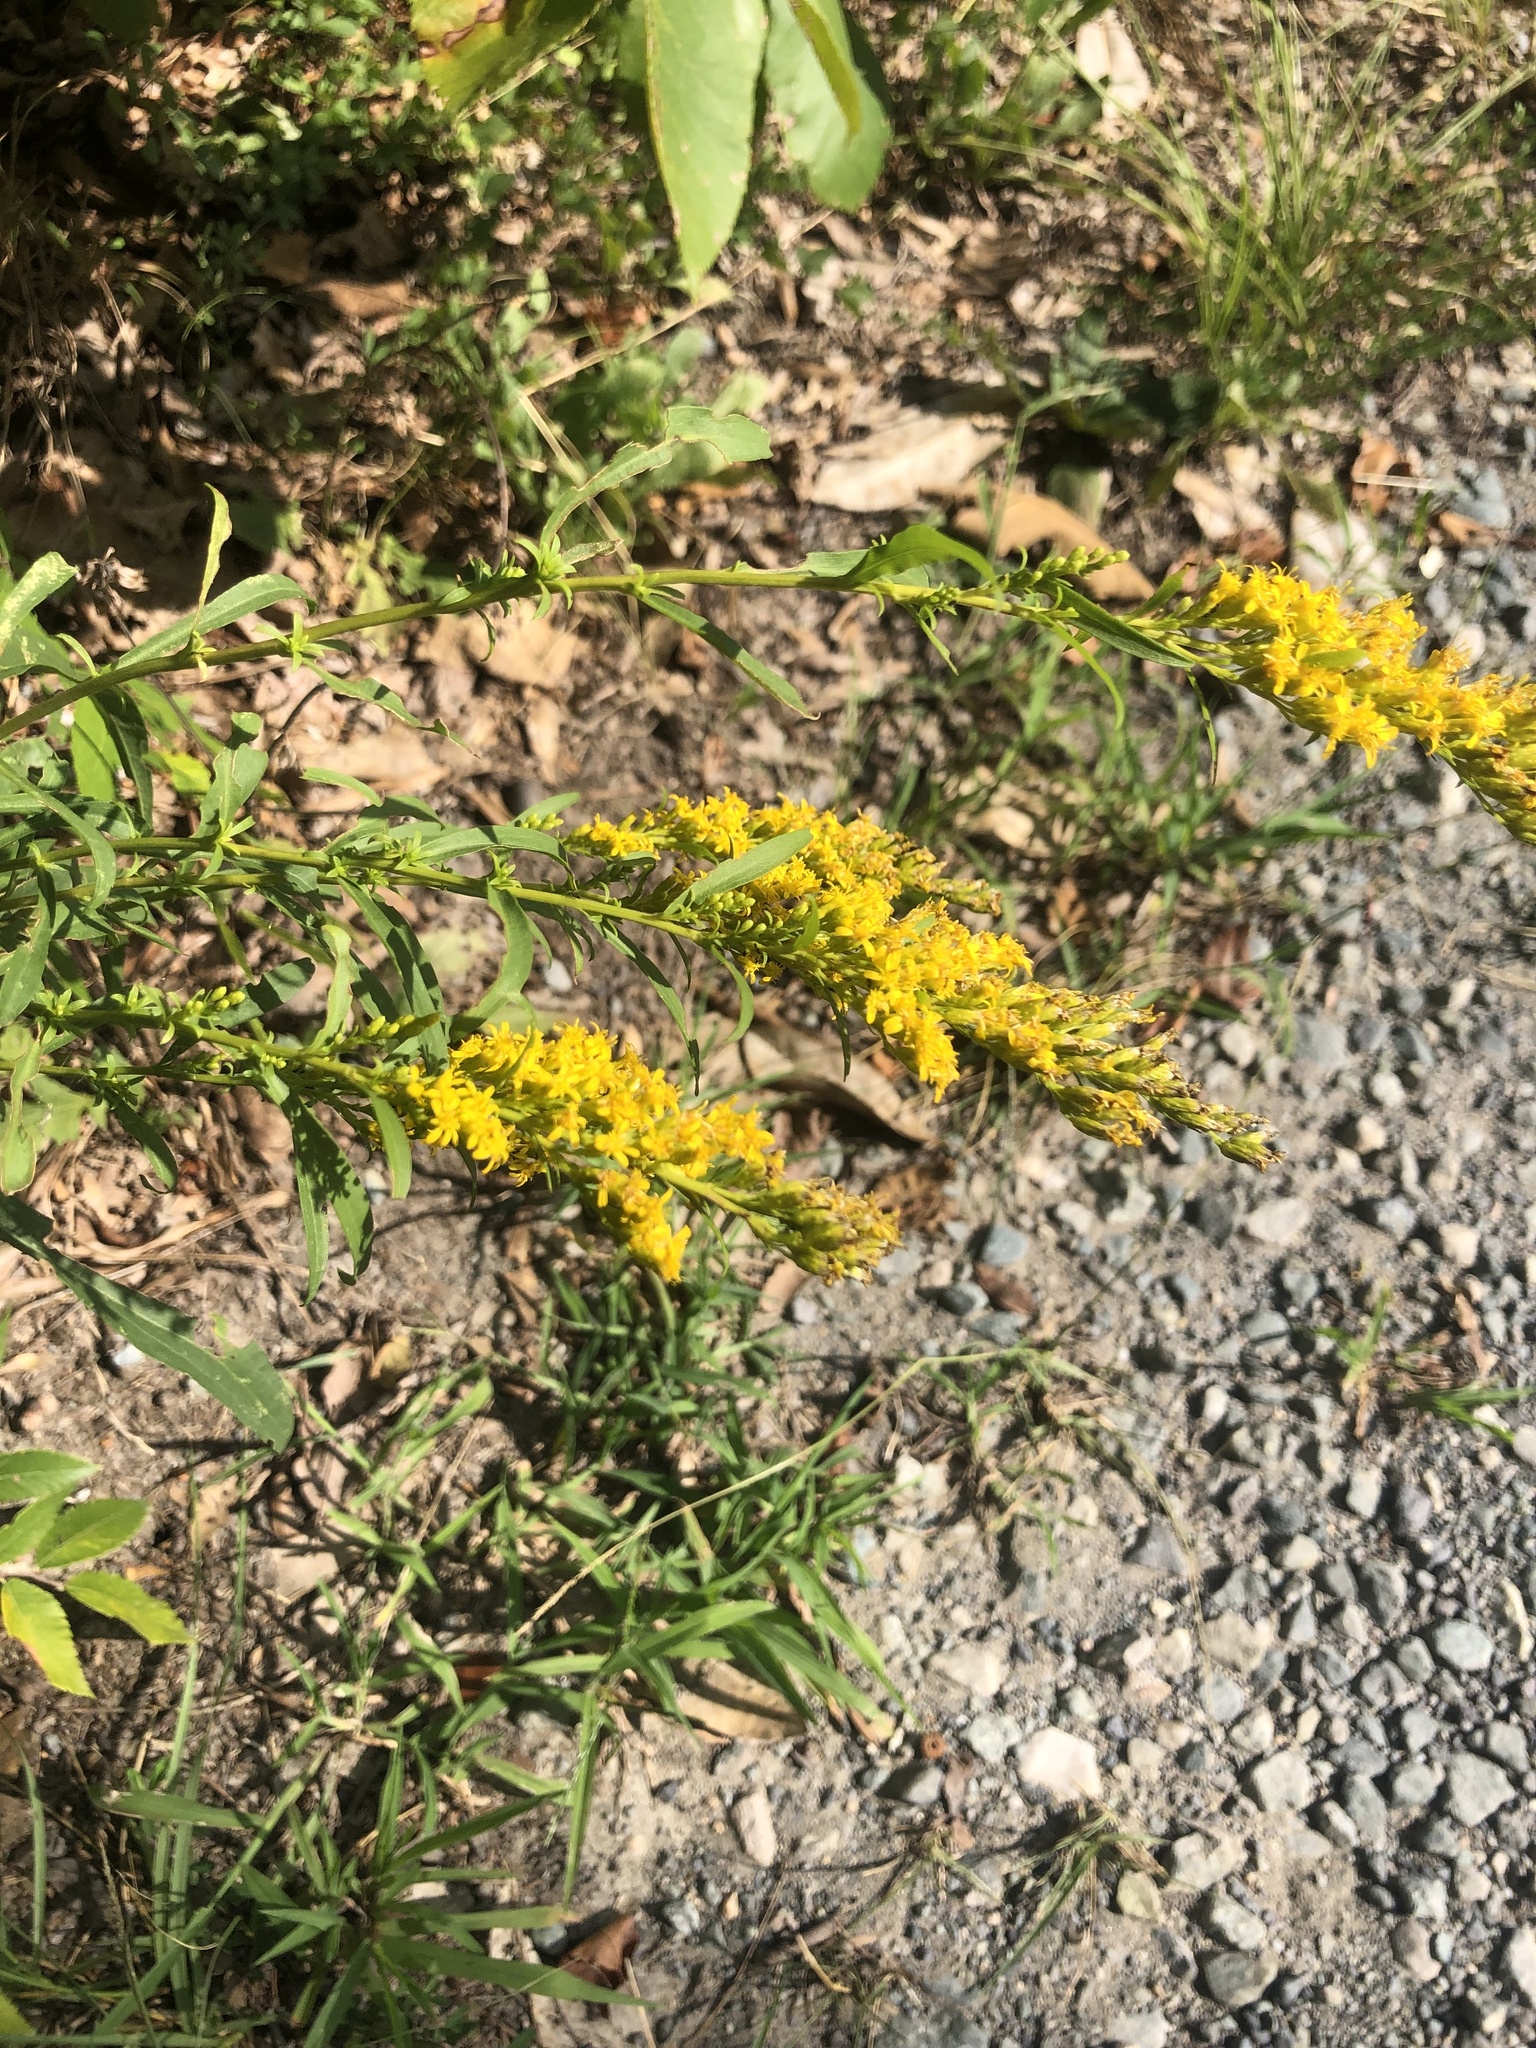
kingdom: Plantae
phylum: Tracheophyta
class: Magnoliopsida
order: Asterales
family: Asteraceae
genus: Solidago
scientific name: Solidago pinetorum
